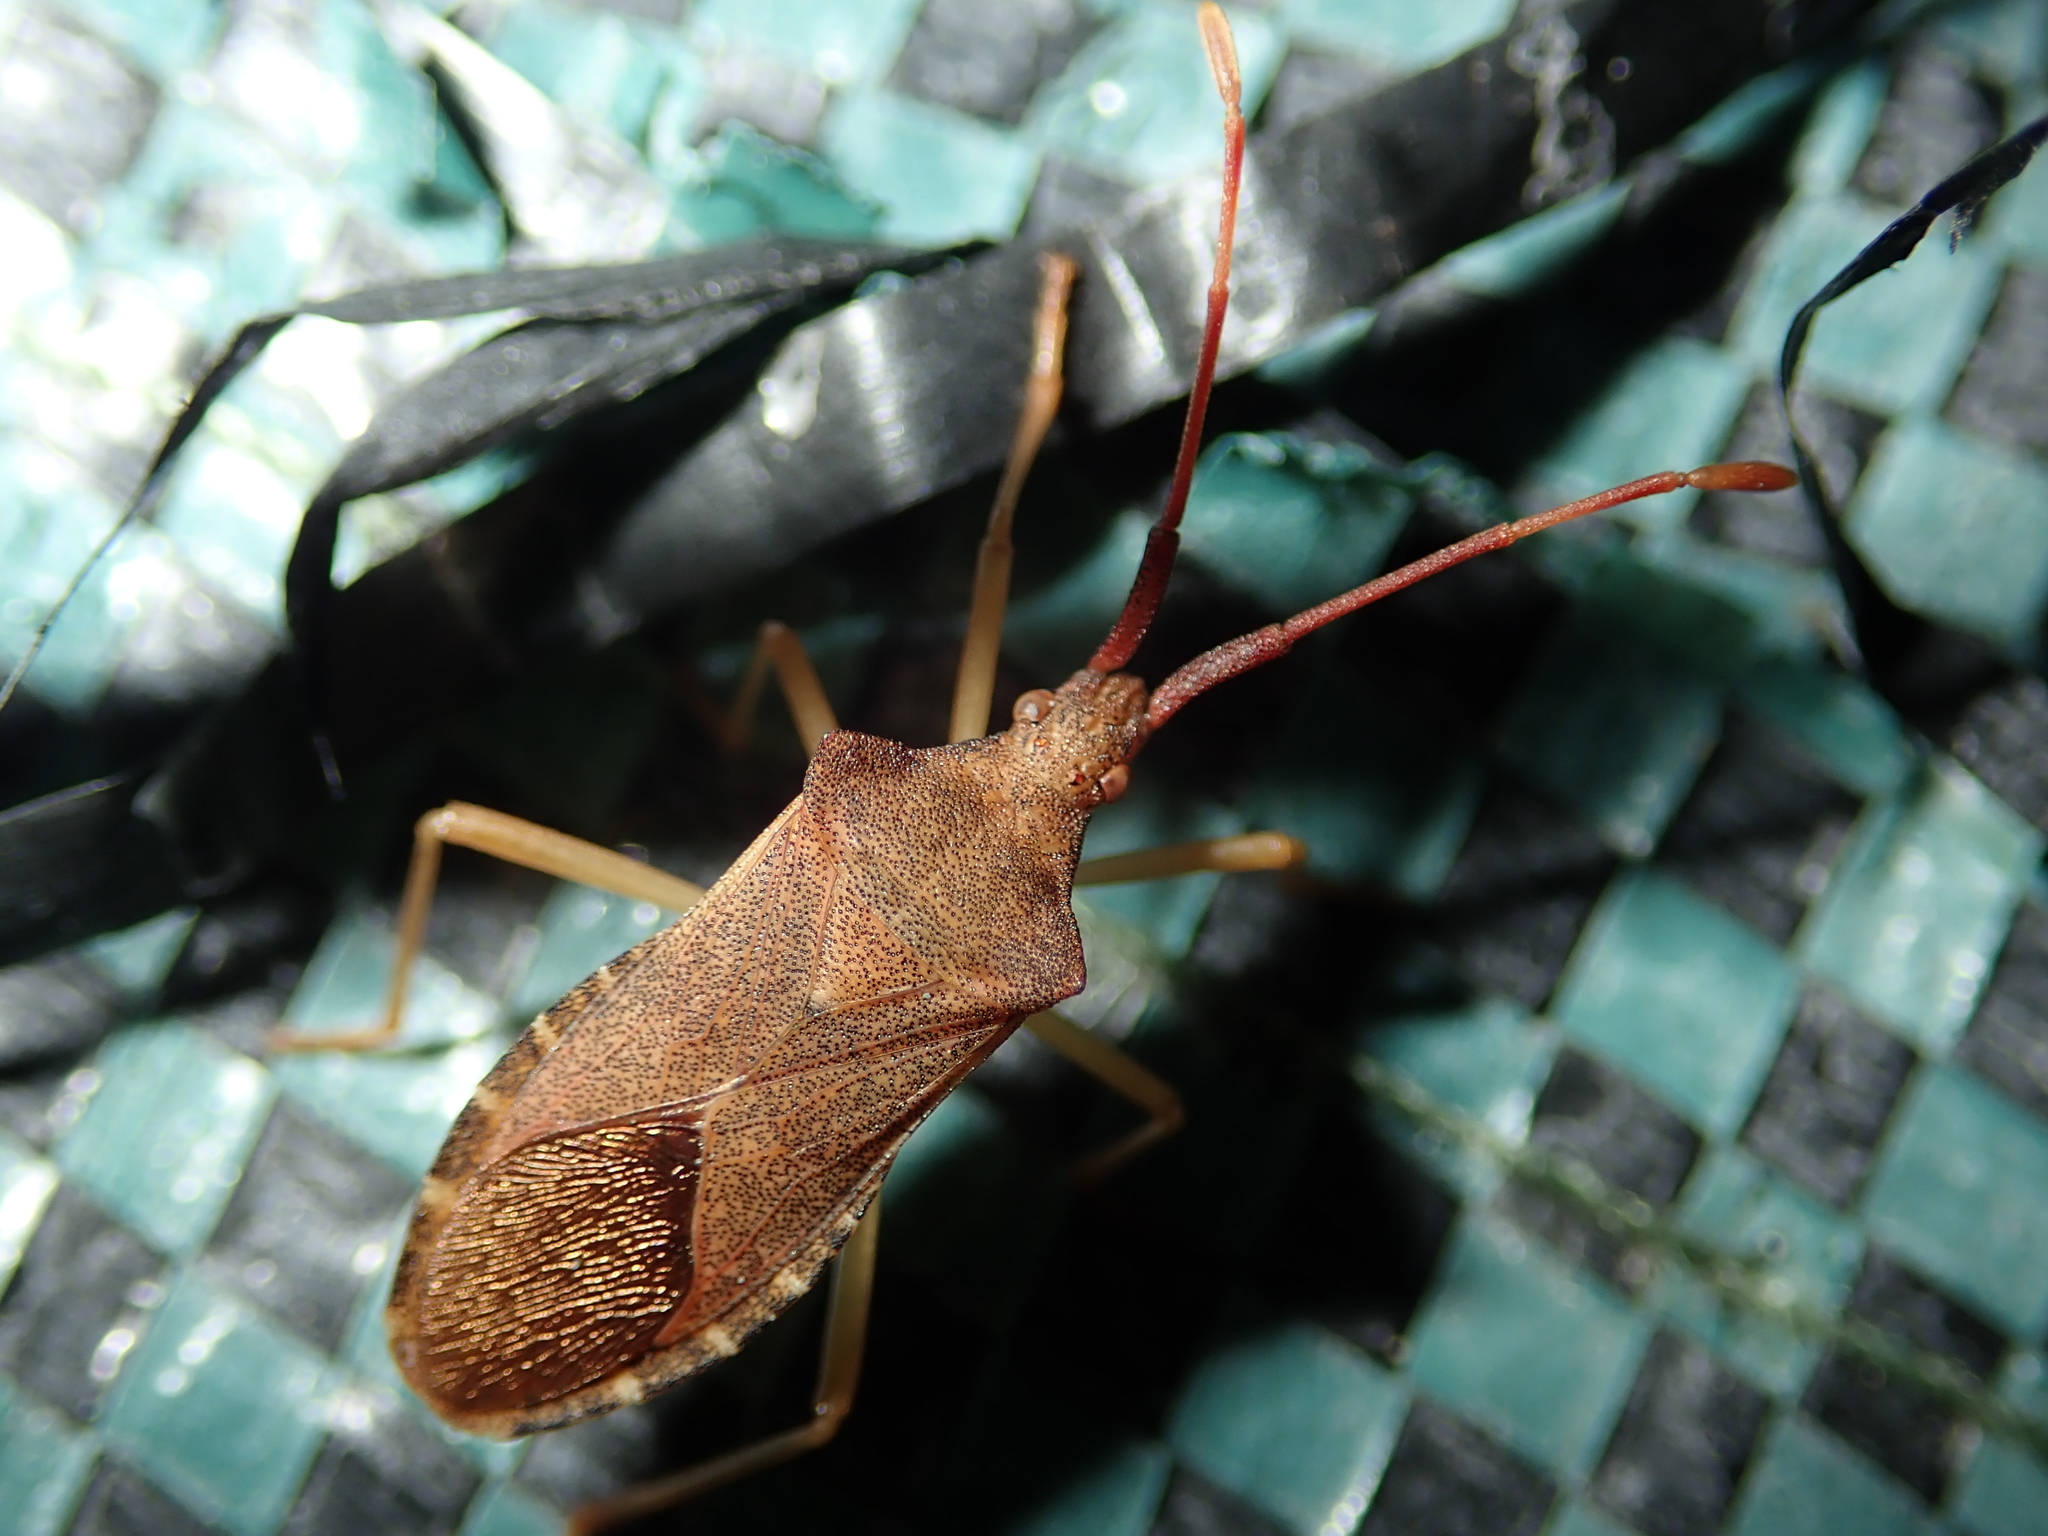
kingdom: Animalia
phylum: Arthropoda
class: Insecta
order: Hemiptera
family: Coreidae
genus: Gonocerus
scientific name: Gonocerus acuteangulatus
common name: Box bug
